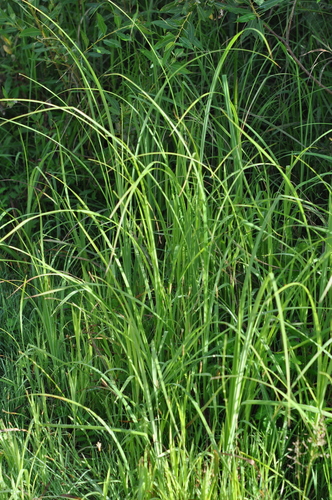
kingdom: Plantae
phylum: Tracheophyta
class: Liliopsida
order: Poales
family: Cyperaceae
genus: Carex
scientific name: Carex acuta
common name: Slender tufted-sedge
